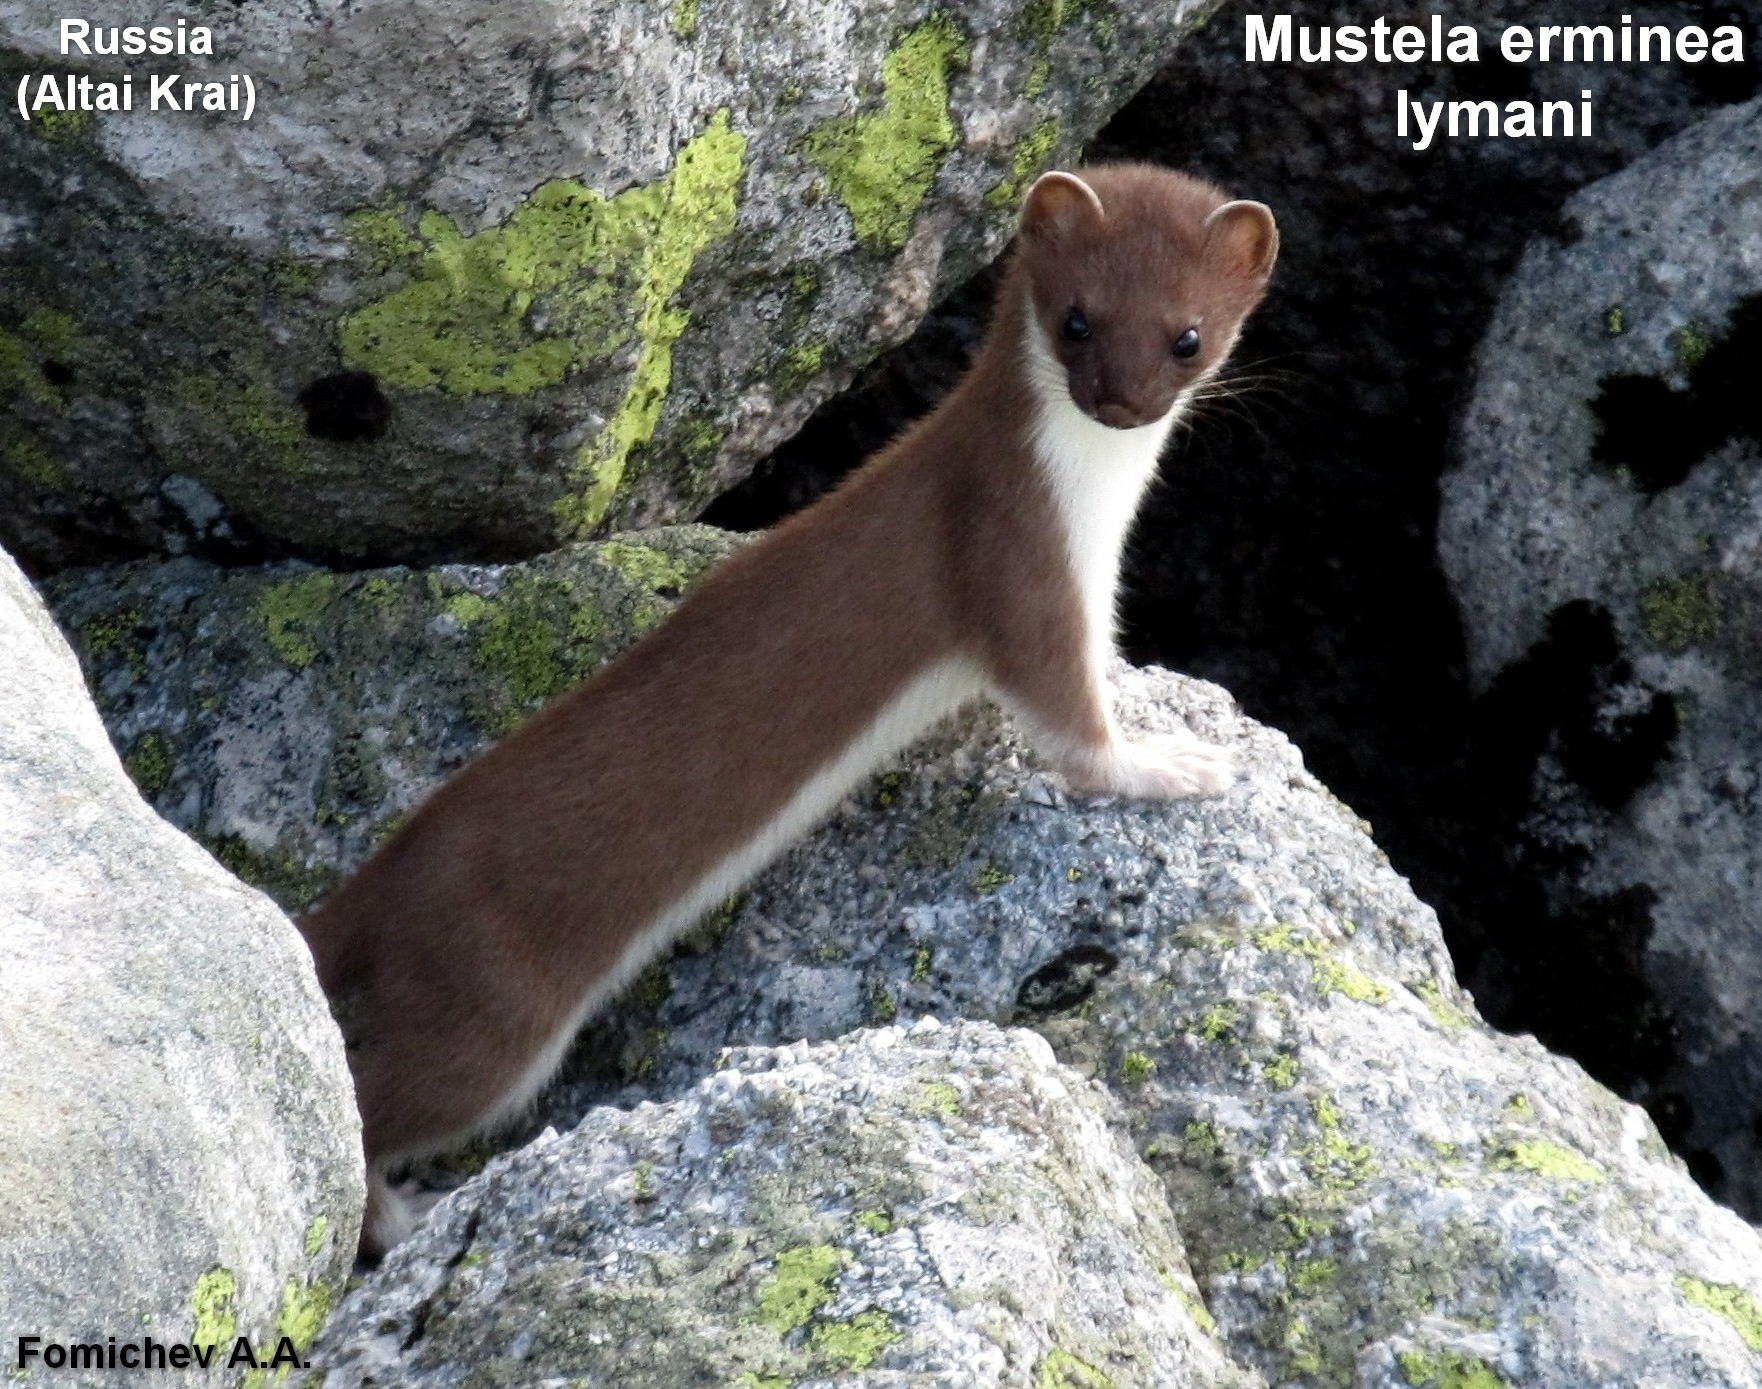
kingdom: Animalia
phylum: Chordata
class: Mammalia
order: Carnivora
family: Mustelidae
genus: Mustela
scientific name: Mustela erminea
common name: Stoat
